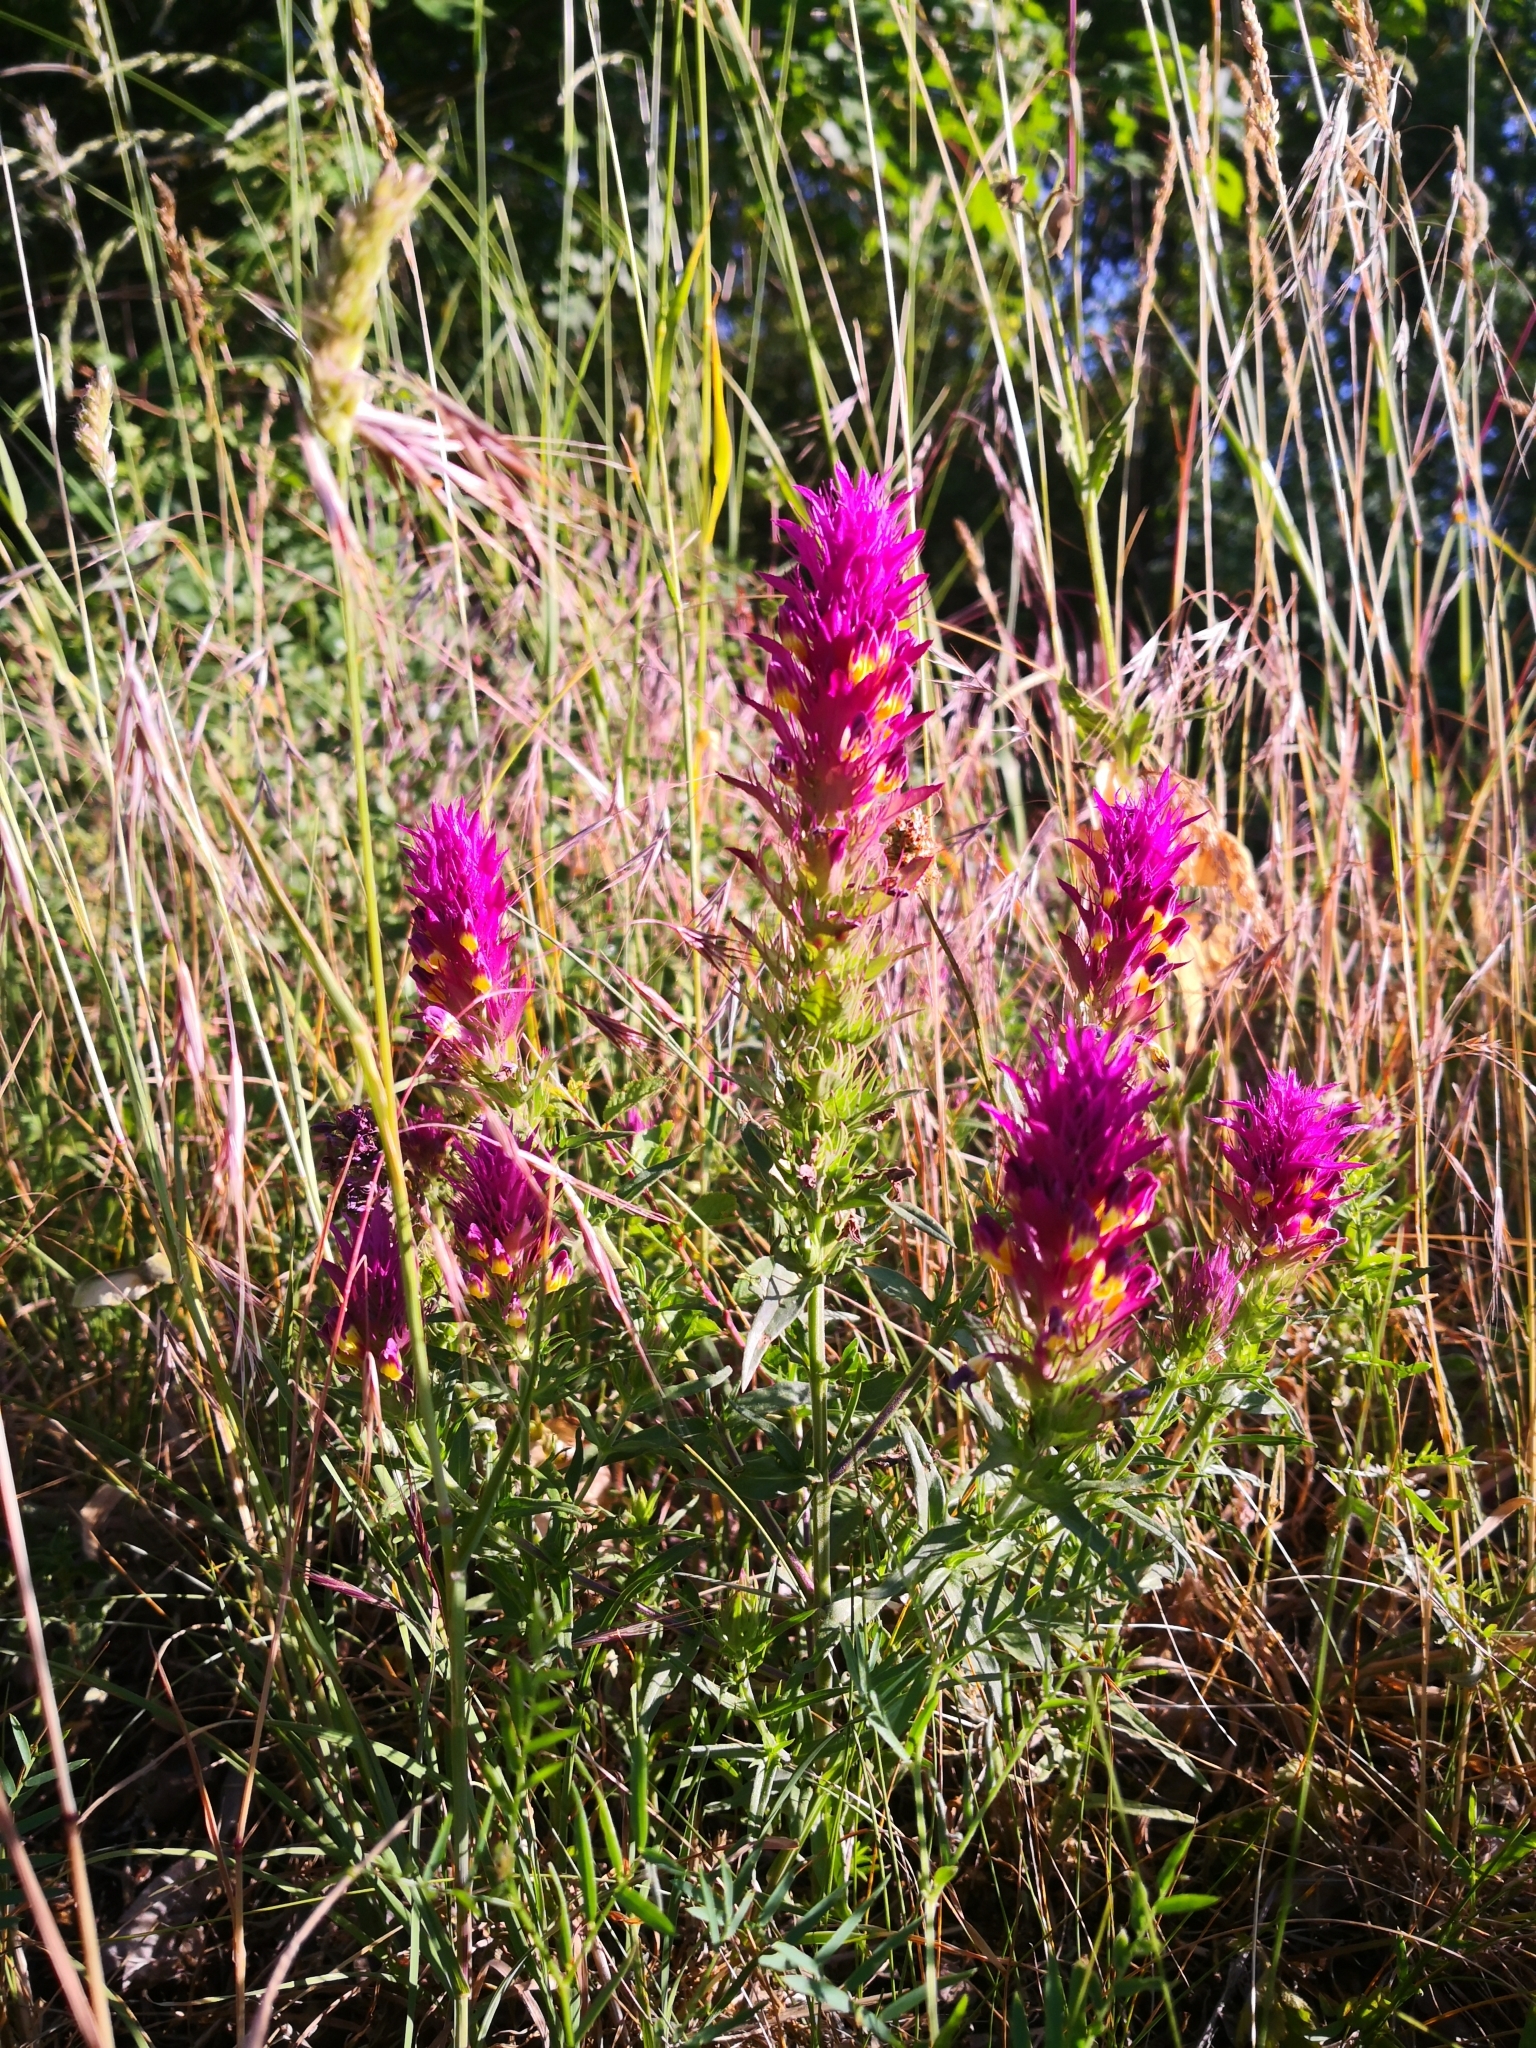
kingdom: Plantae
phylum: Tracheophyta
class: Magnoliopsida
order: Lamiales
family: Orobanchaceae
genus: Melampyrum
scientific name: Melampyrum arvense
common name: Field cow-wheat
